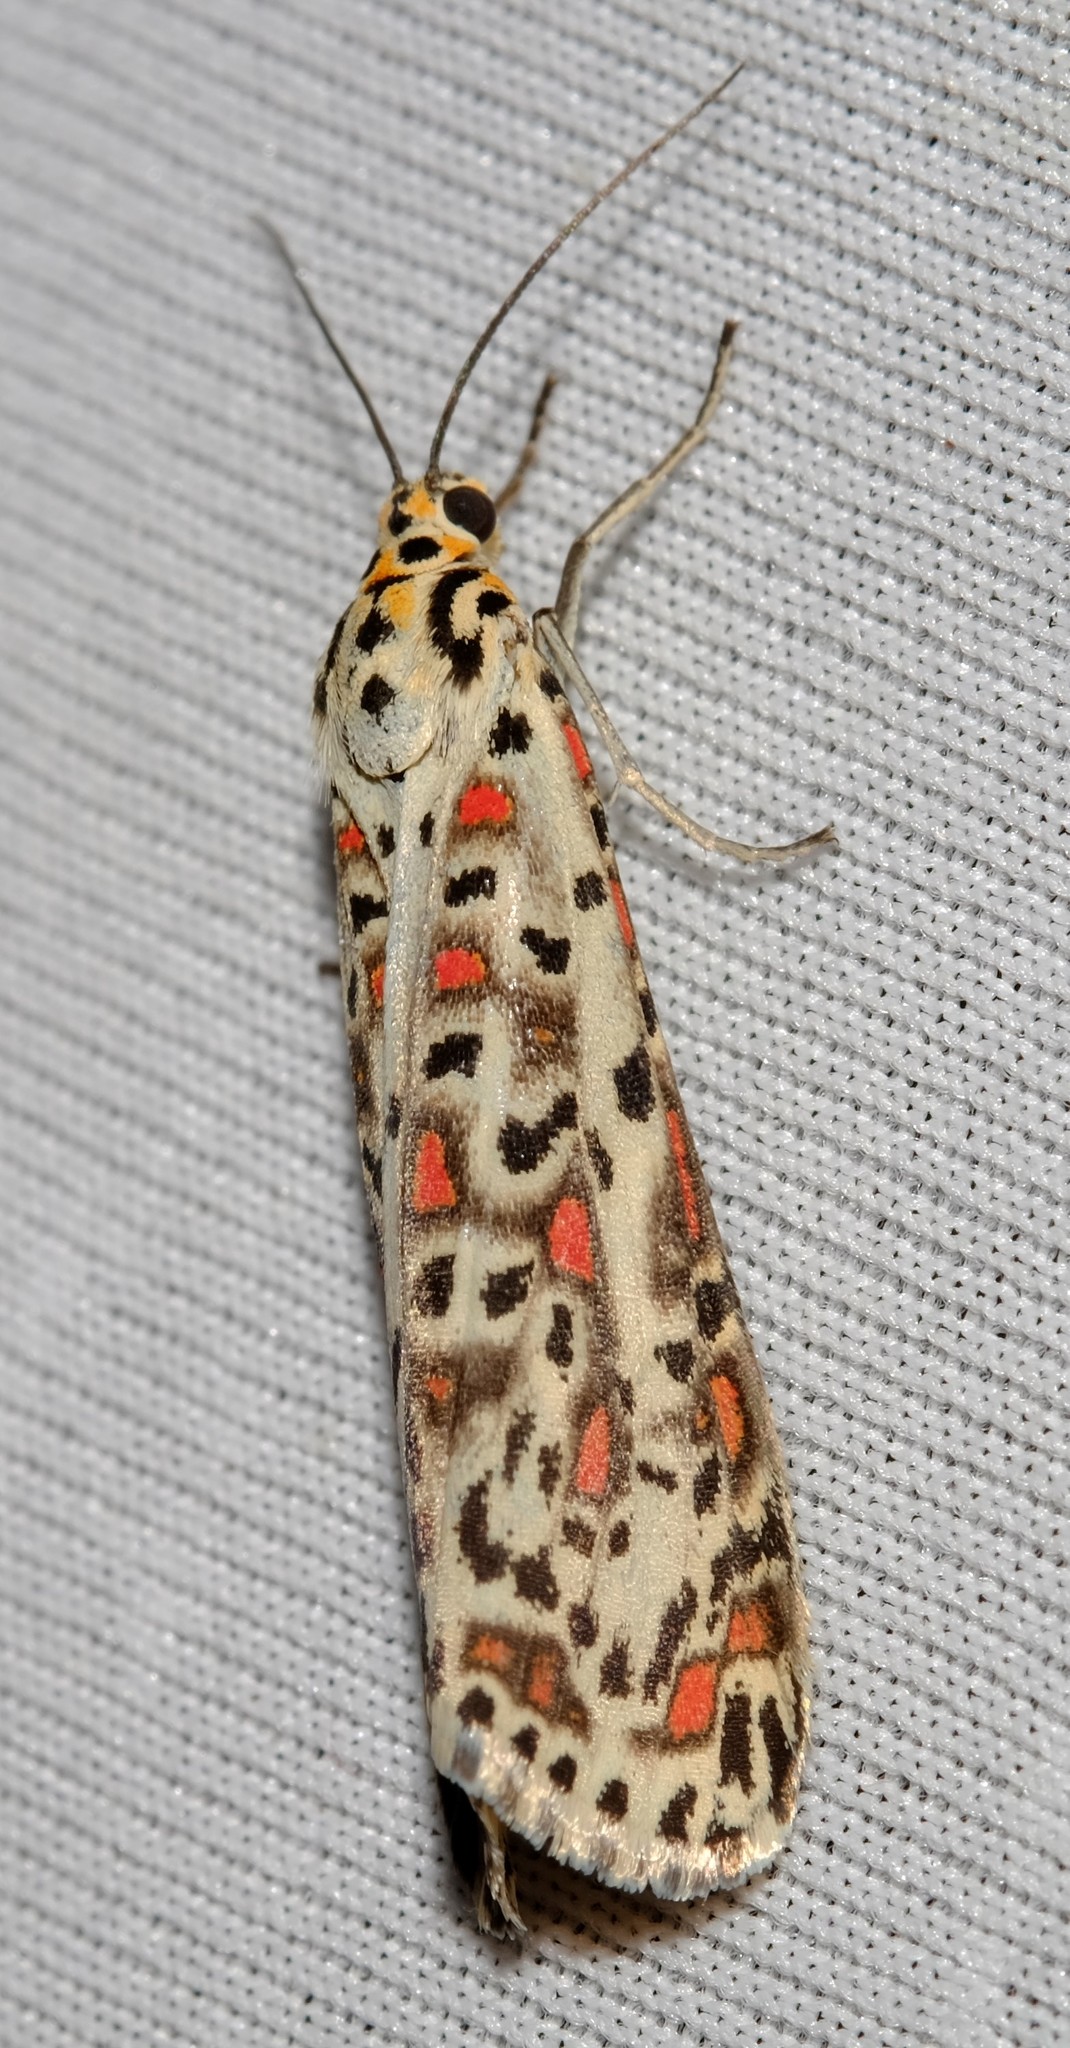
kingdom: Animalia
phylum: Arthropoda
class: Insecta
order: Lepidoptera
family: Erebidae
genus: Utetheisa
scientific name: Utetheisa pulchelloides
